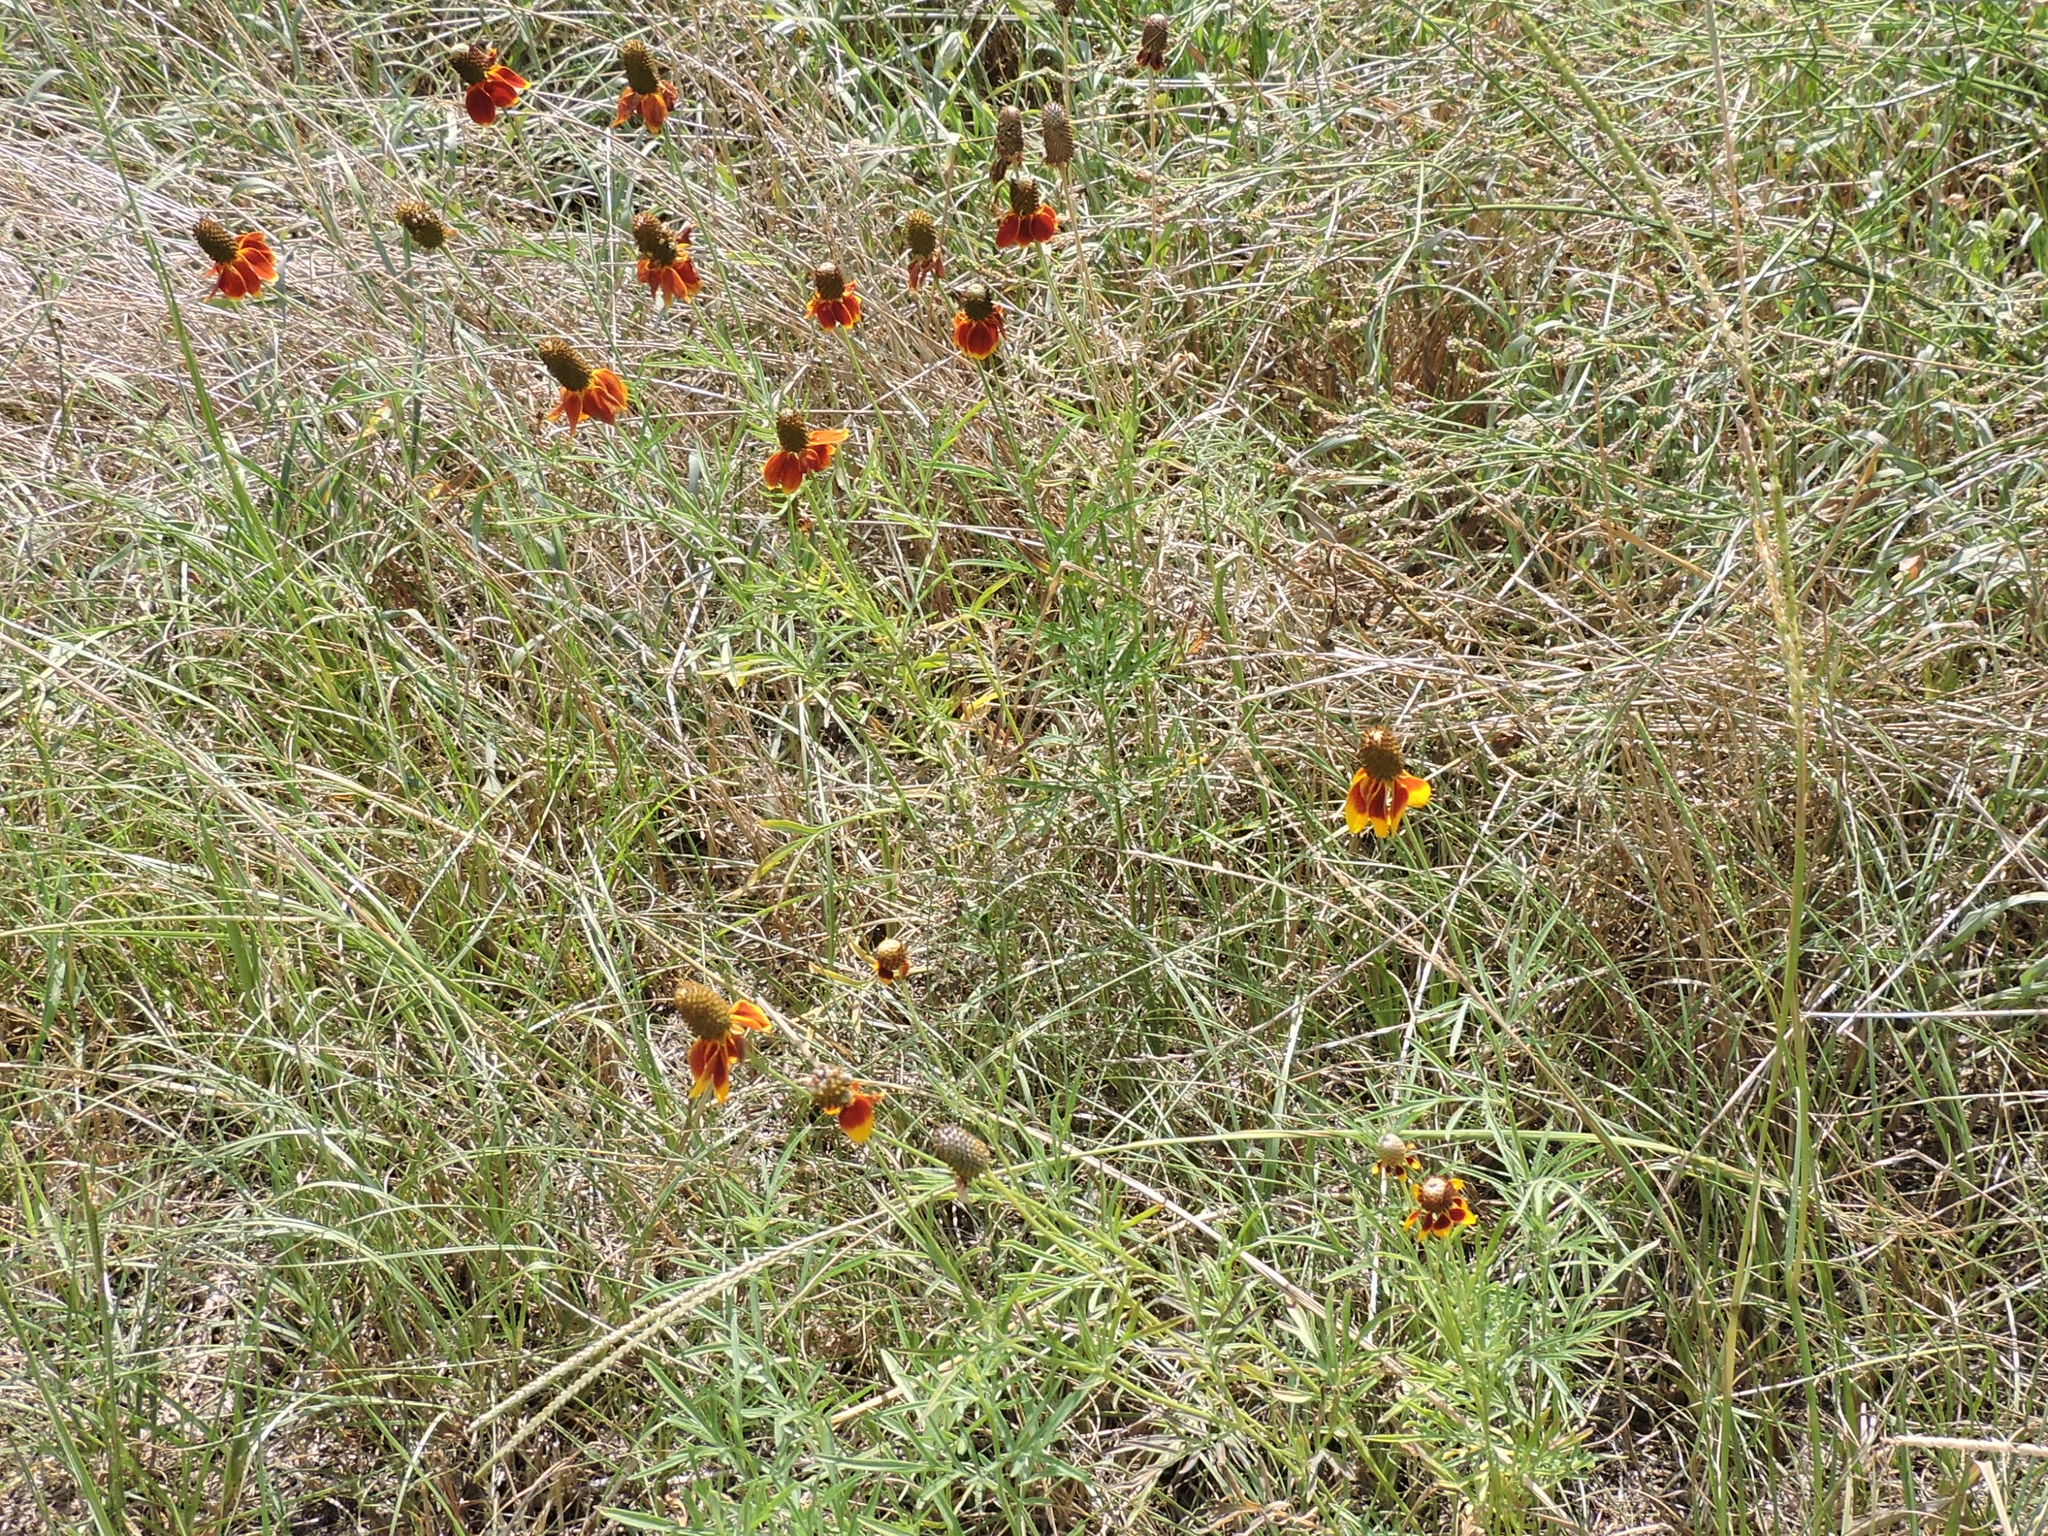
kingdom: Plantae
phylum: Tracheophyta
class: Magnoliopsida
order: Asterales
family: Asteraceae
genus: Ratibida
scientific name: Ratibida columnifera
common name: Prairie coneflower
